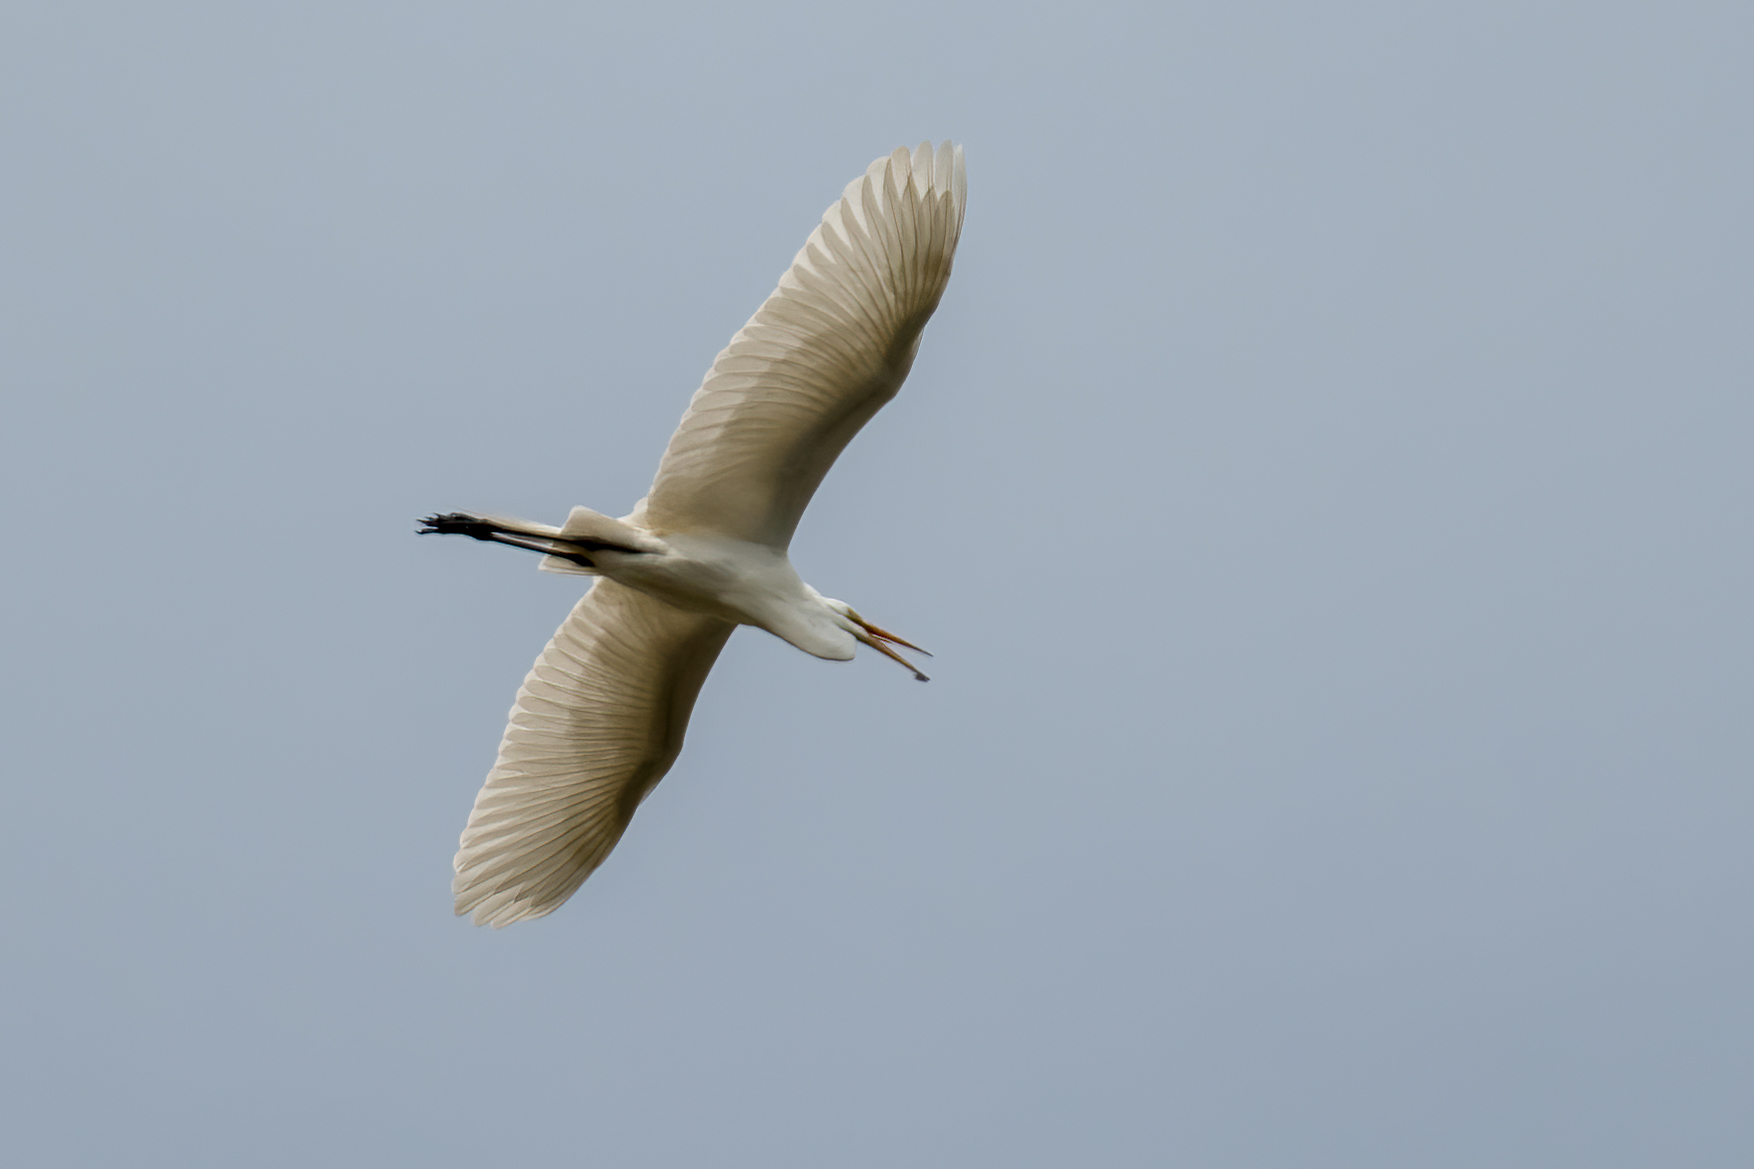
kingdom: Animalia
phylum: Chordata
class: Aves
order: Pelecaniformes
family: Ardeidae
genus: Ardea
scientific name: Ardea alba
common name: Great egret
